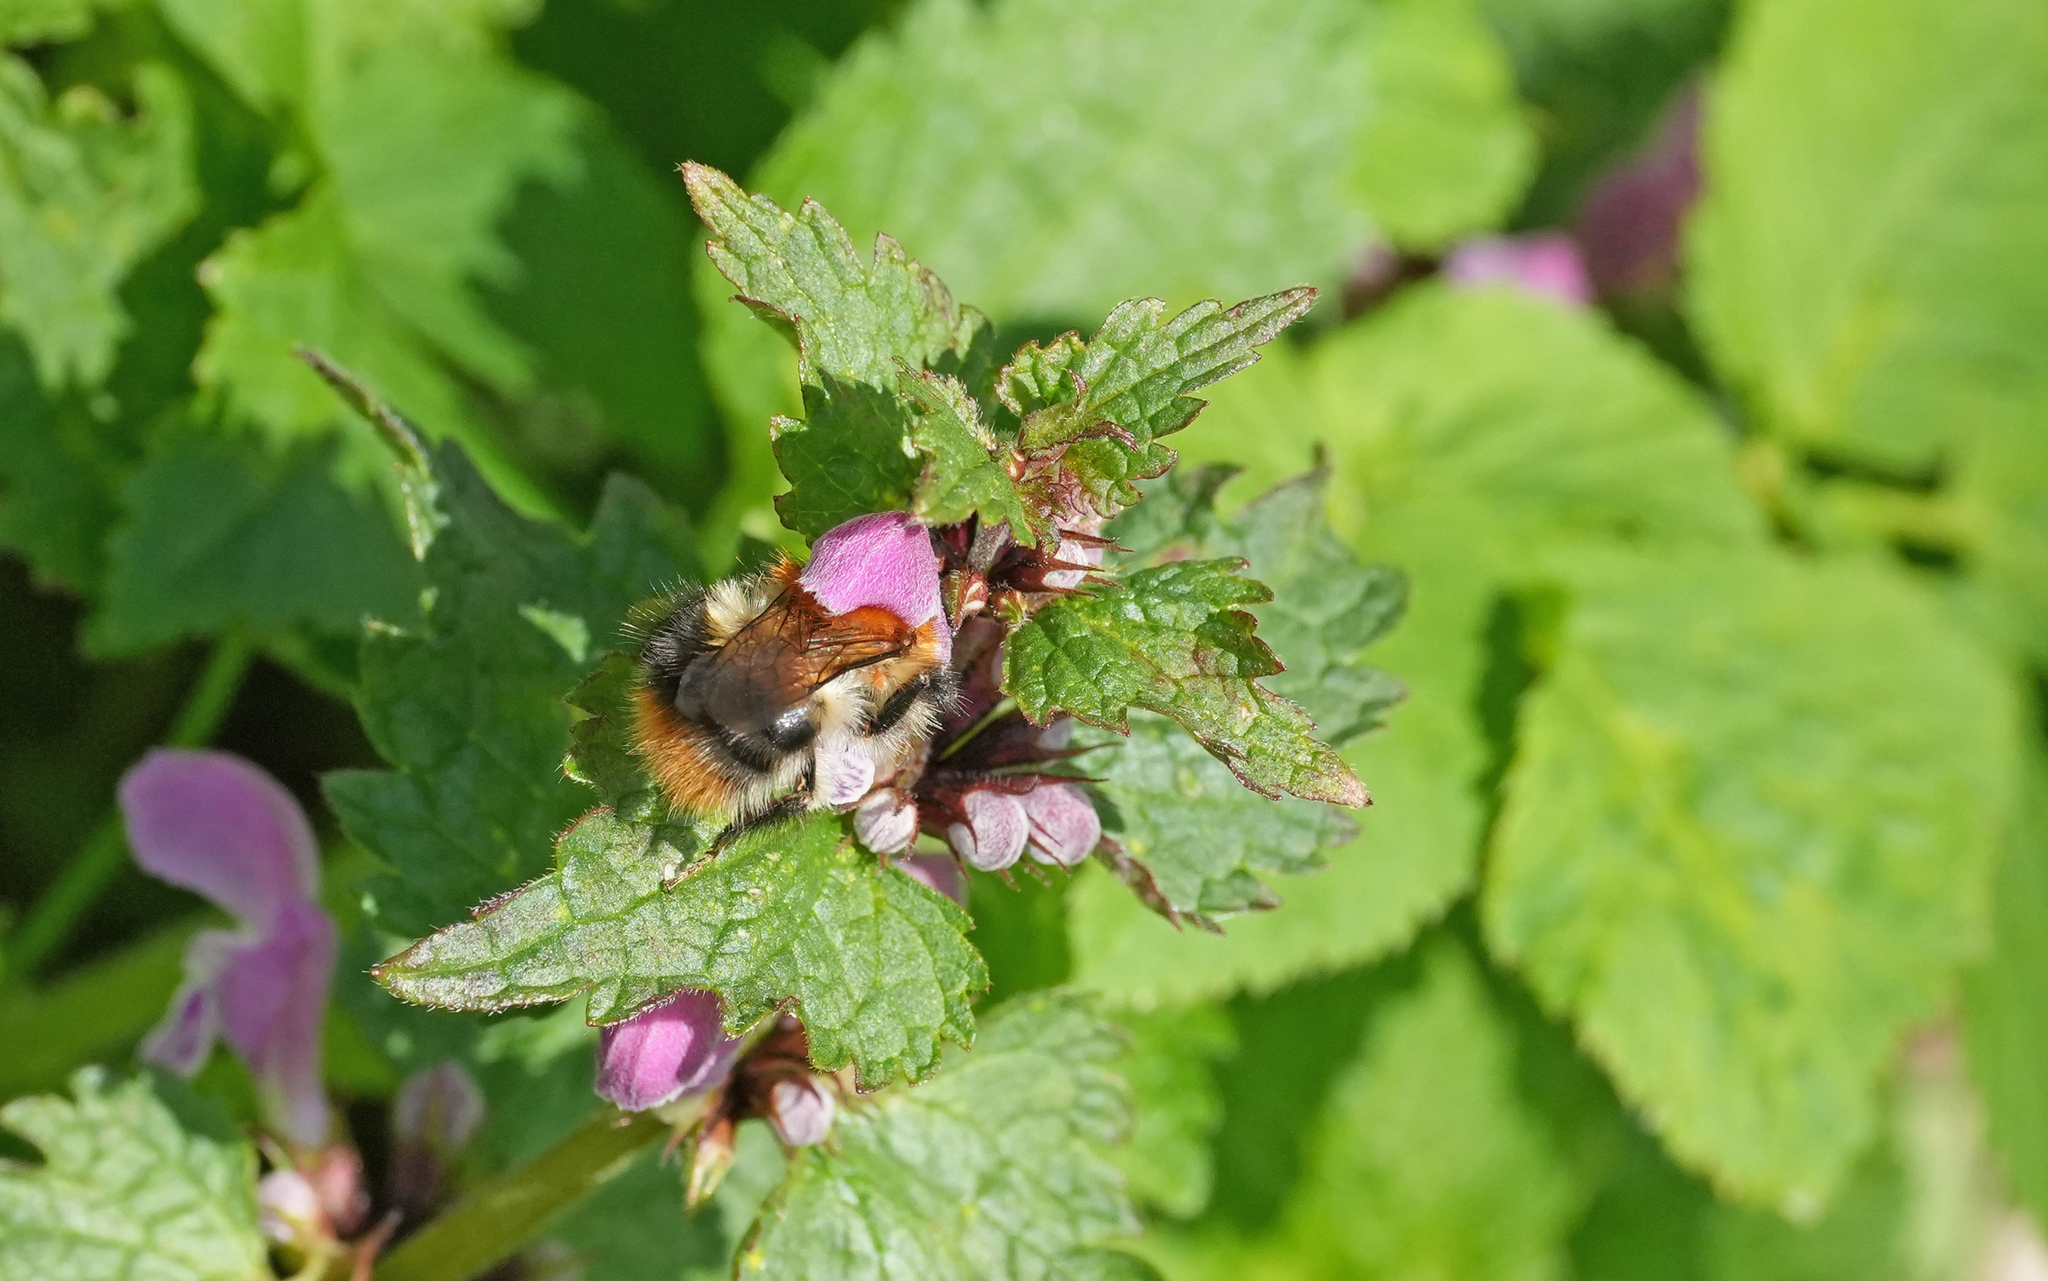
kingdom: Animalia
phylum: Arthropoda
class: Insecta
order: Hymenoptera
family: Apidae
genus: Bombus
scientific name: Bombus pascuorum
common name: Common carder bee
